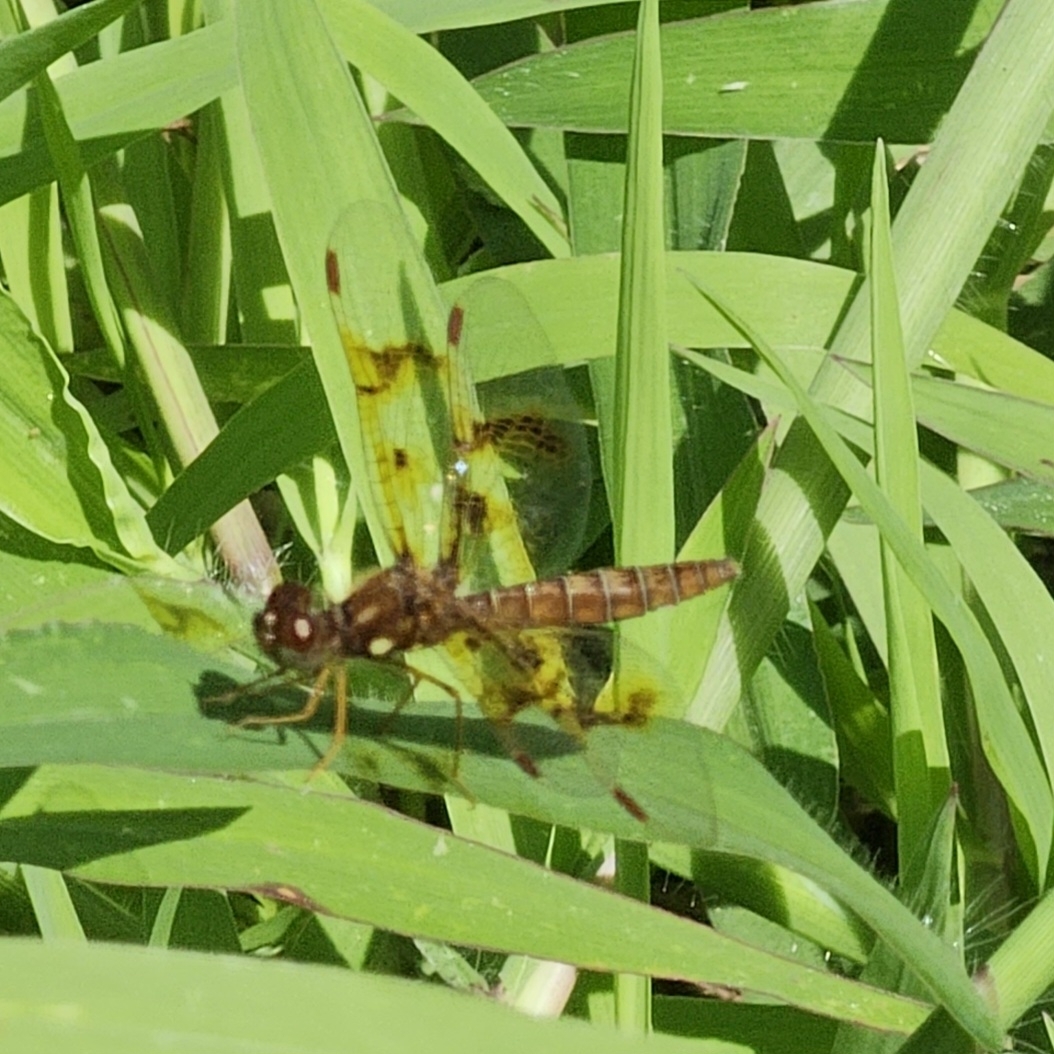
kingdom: Animalia
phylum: Arthropoda
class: Insecta
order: Odonata
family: Libellulidae
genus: Perithemis
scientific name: Perithemis tenera
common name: Eastern amberwing
